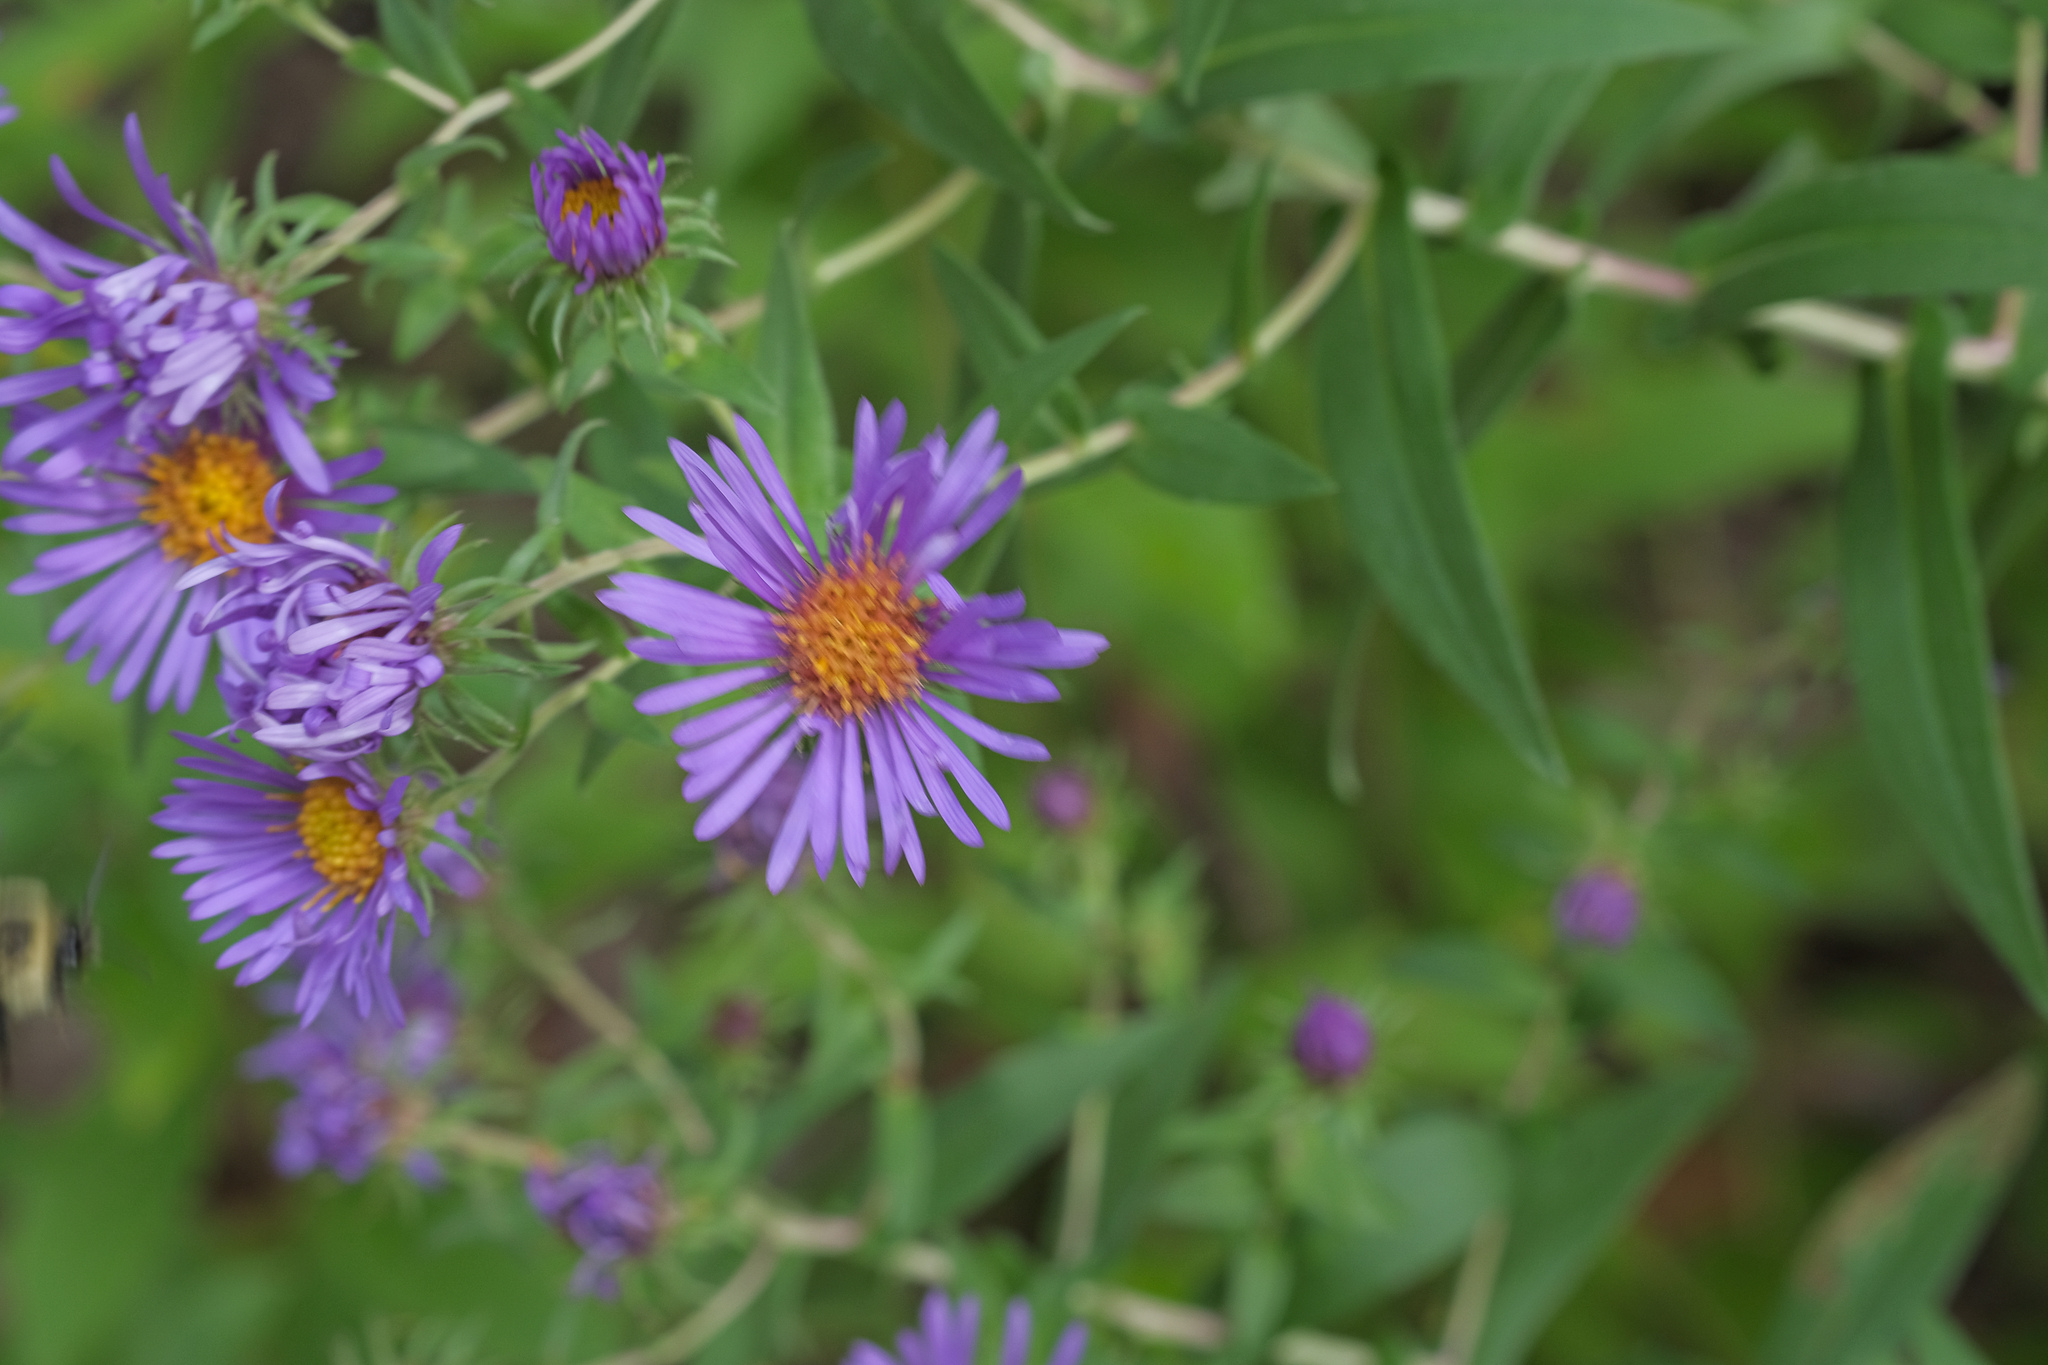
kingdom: Plantae
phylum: Tracheophyta
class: Magnoliopsida
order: Asterales
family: Asteraceae
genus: Symphyotrichum
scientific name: Symphyotrichum novae-angliae
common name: Michaelmas daisy
